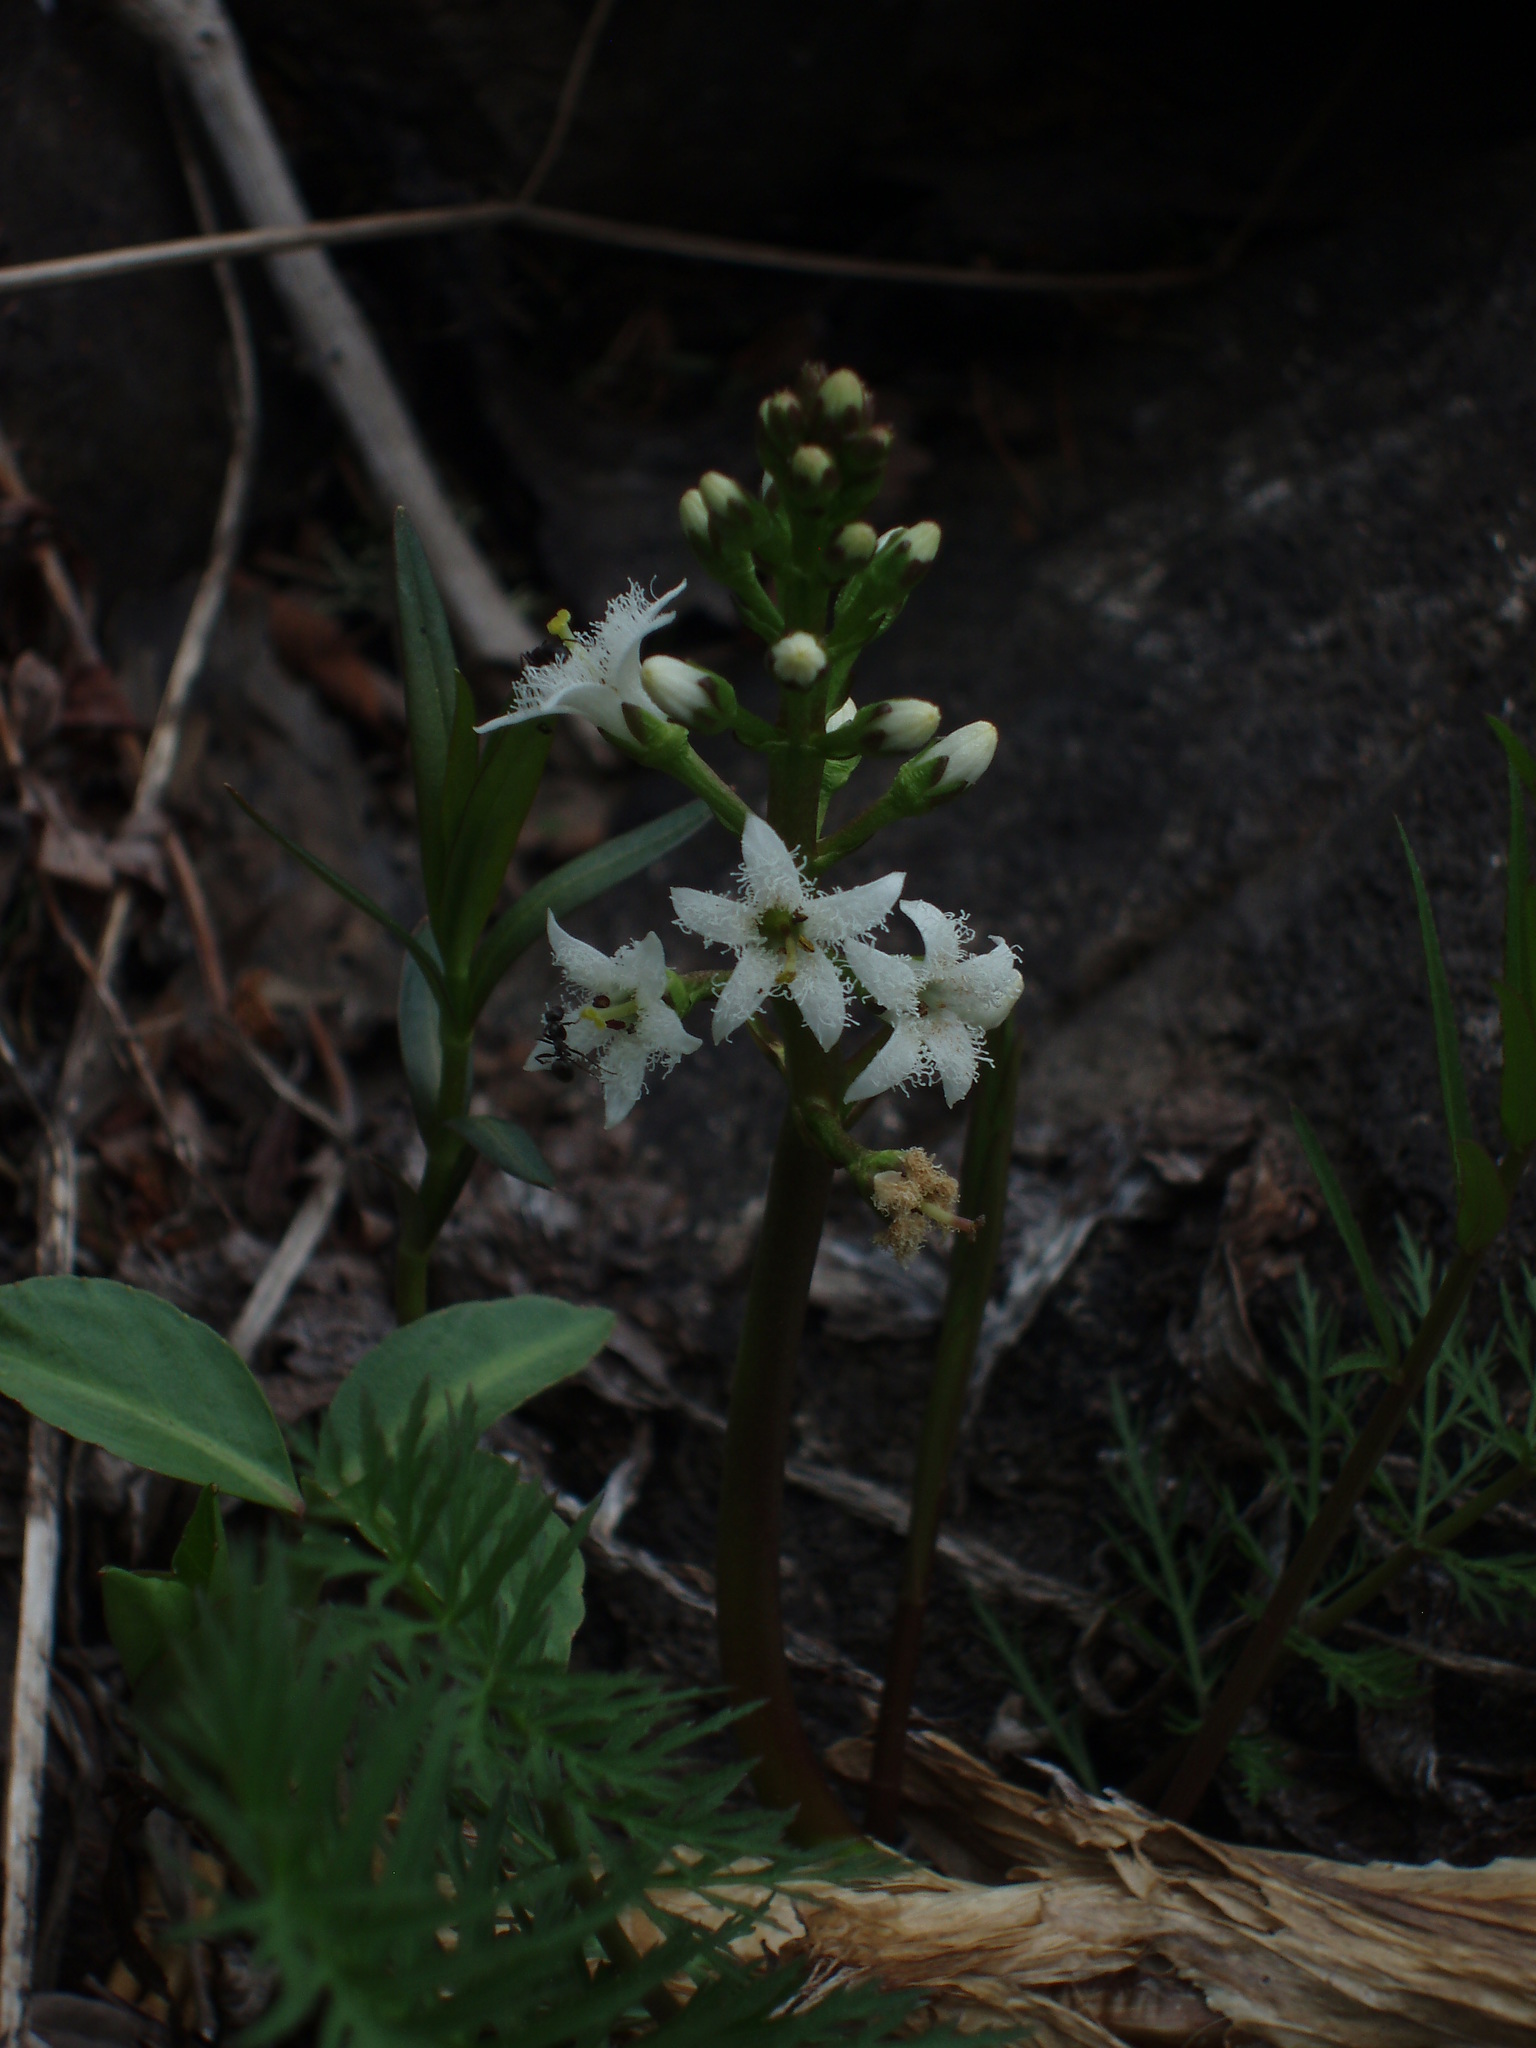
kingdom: Plantae
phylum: Tracheophyta
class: Magnoliopsida
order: Asterales
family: Menyanthaceae
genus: Menyanthes
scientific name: Menyanthes trifoliata
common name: Bogbean
